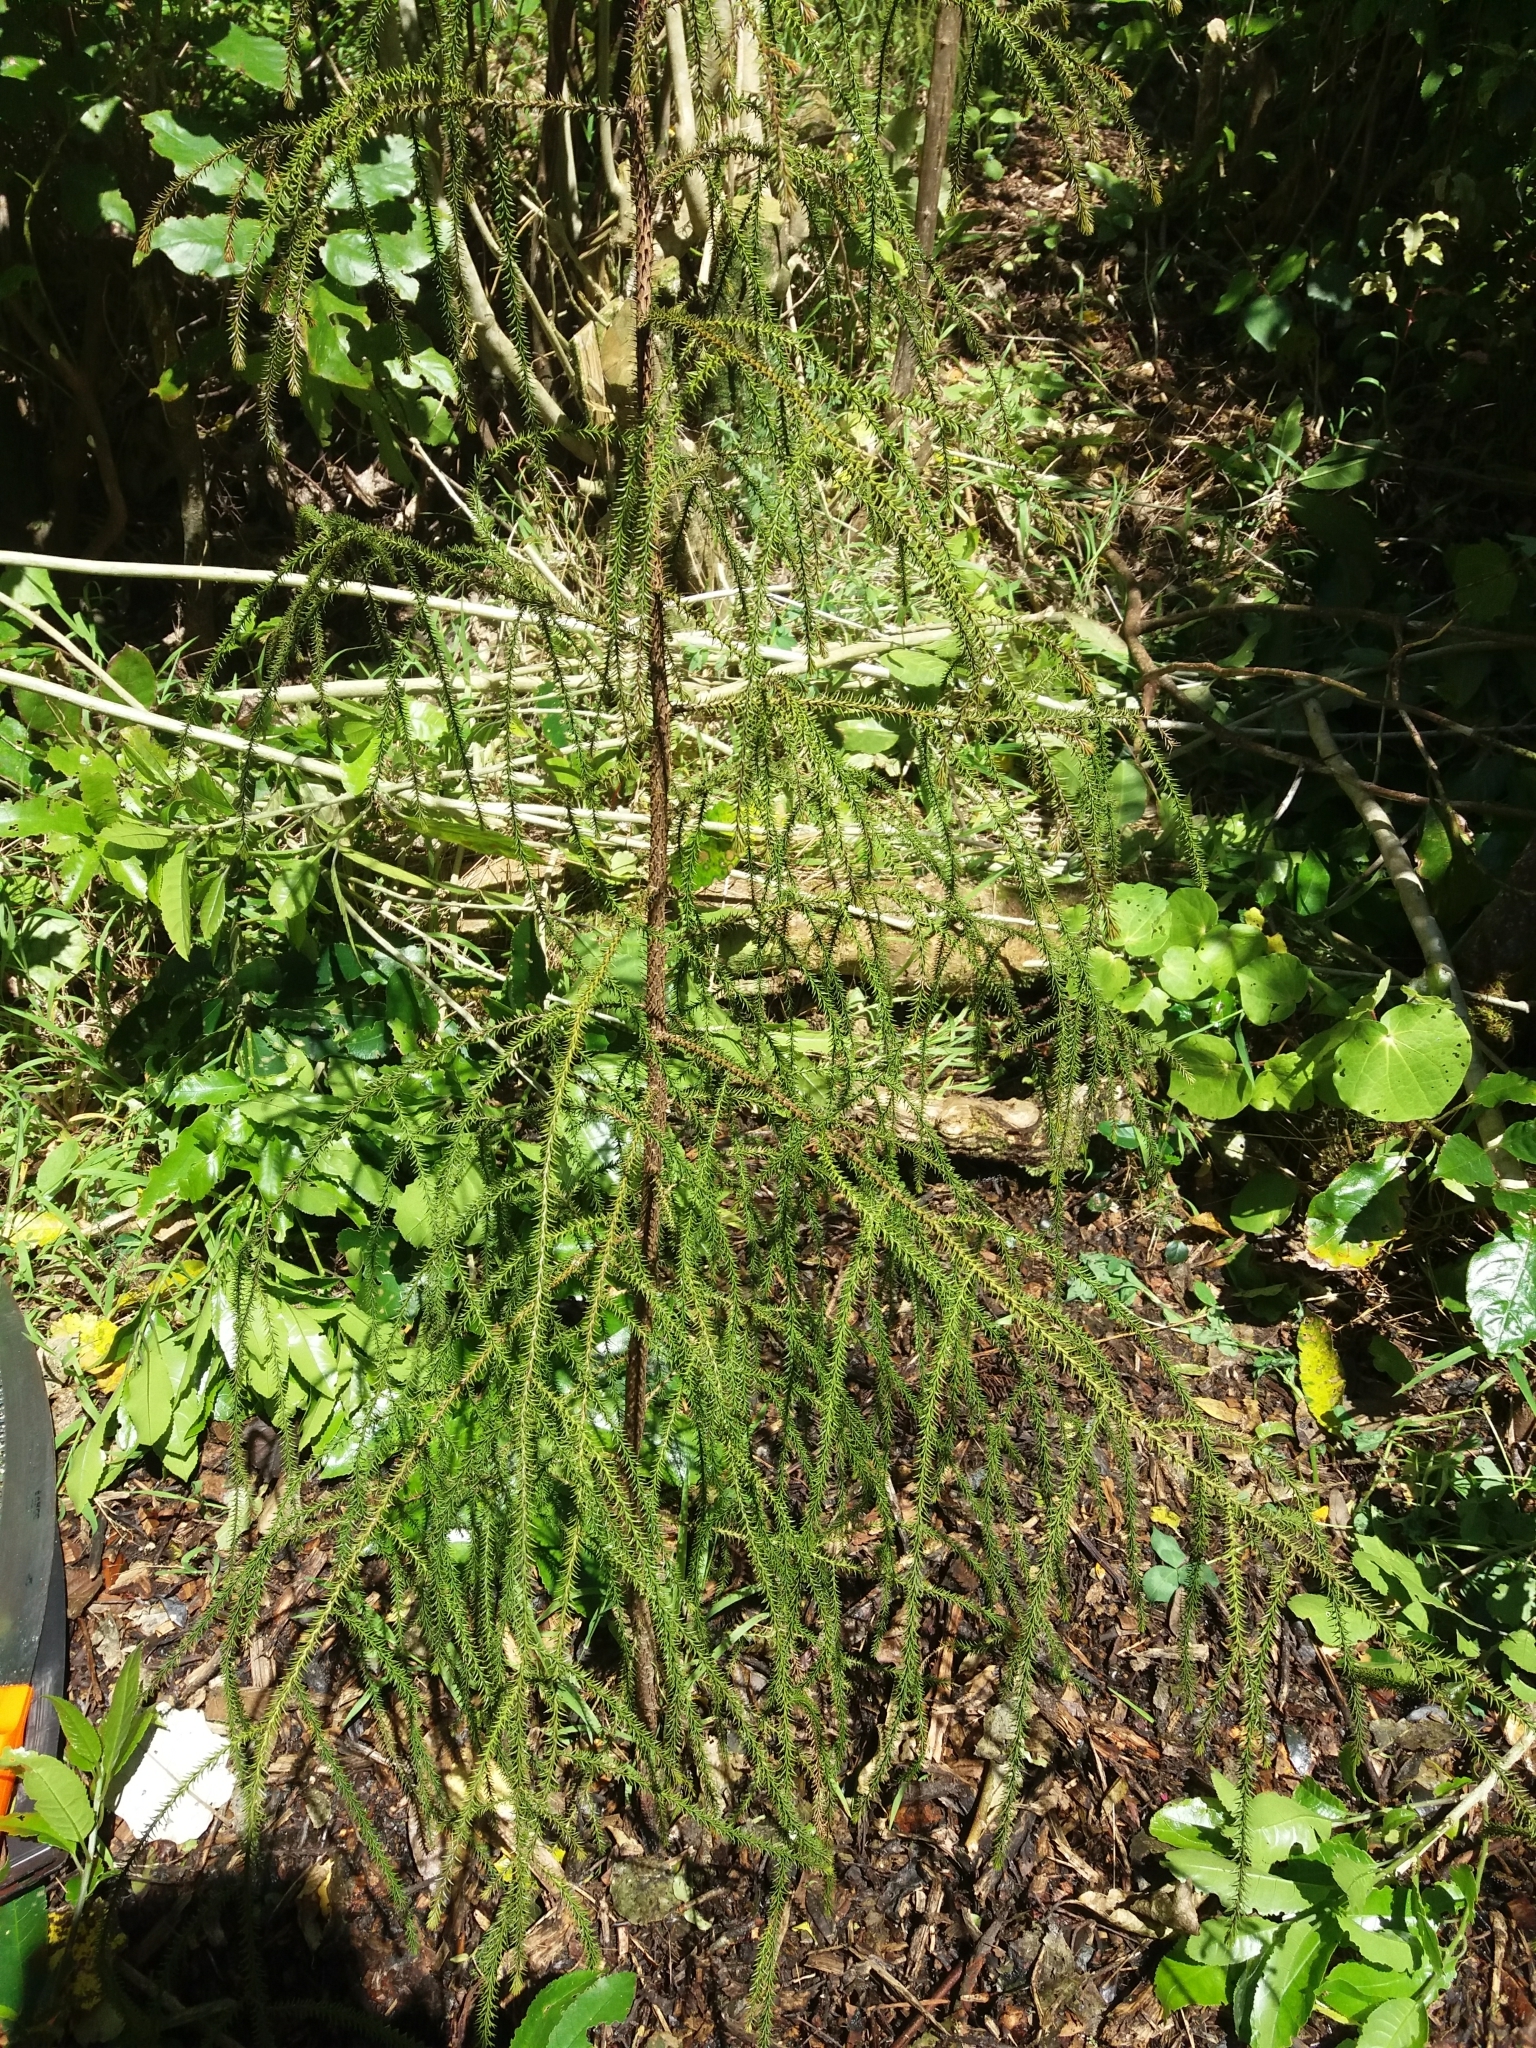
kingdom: Plantae
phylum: Tracheophyta
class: Pinopsida
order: Pinales
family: Podocarpaceae
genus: Dacrydium
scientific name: Dacrydium cupressinum
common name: Red pine
